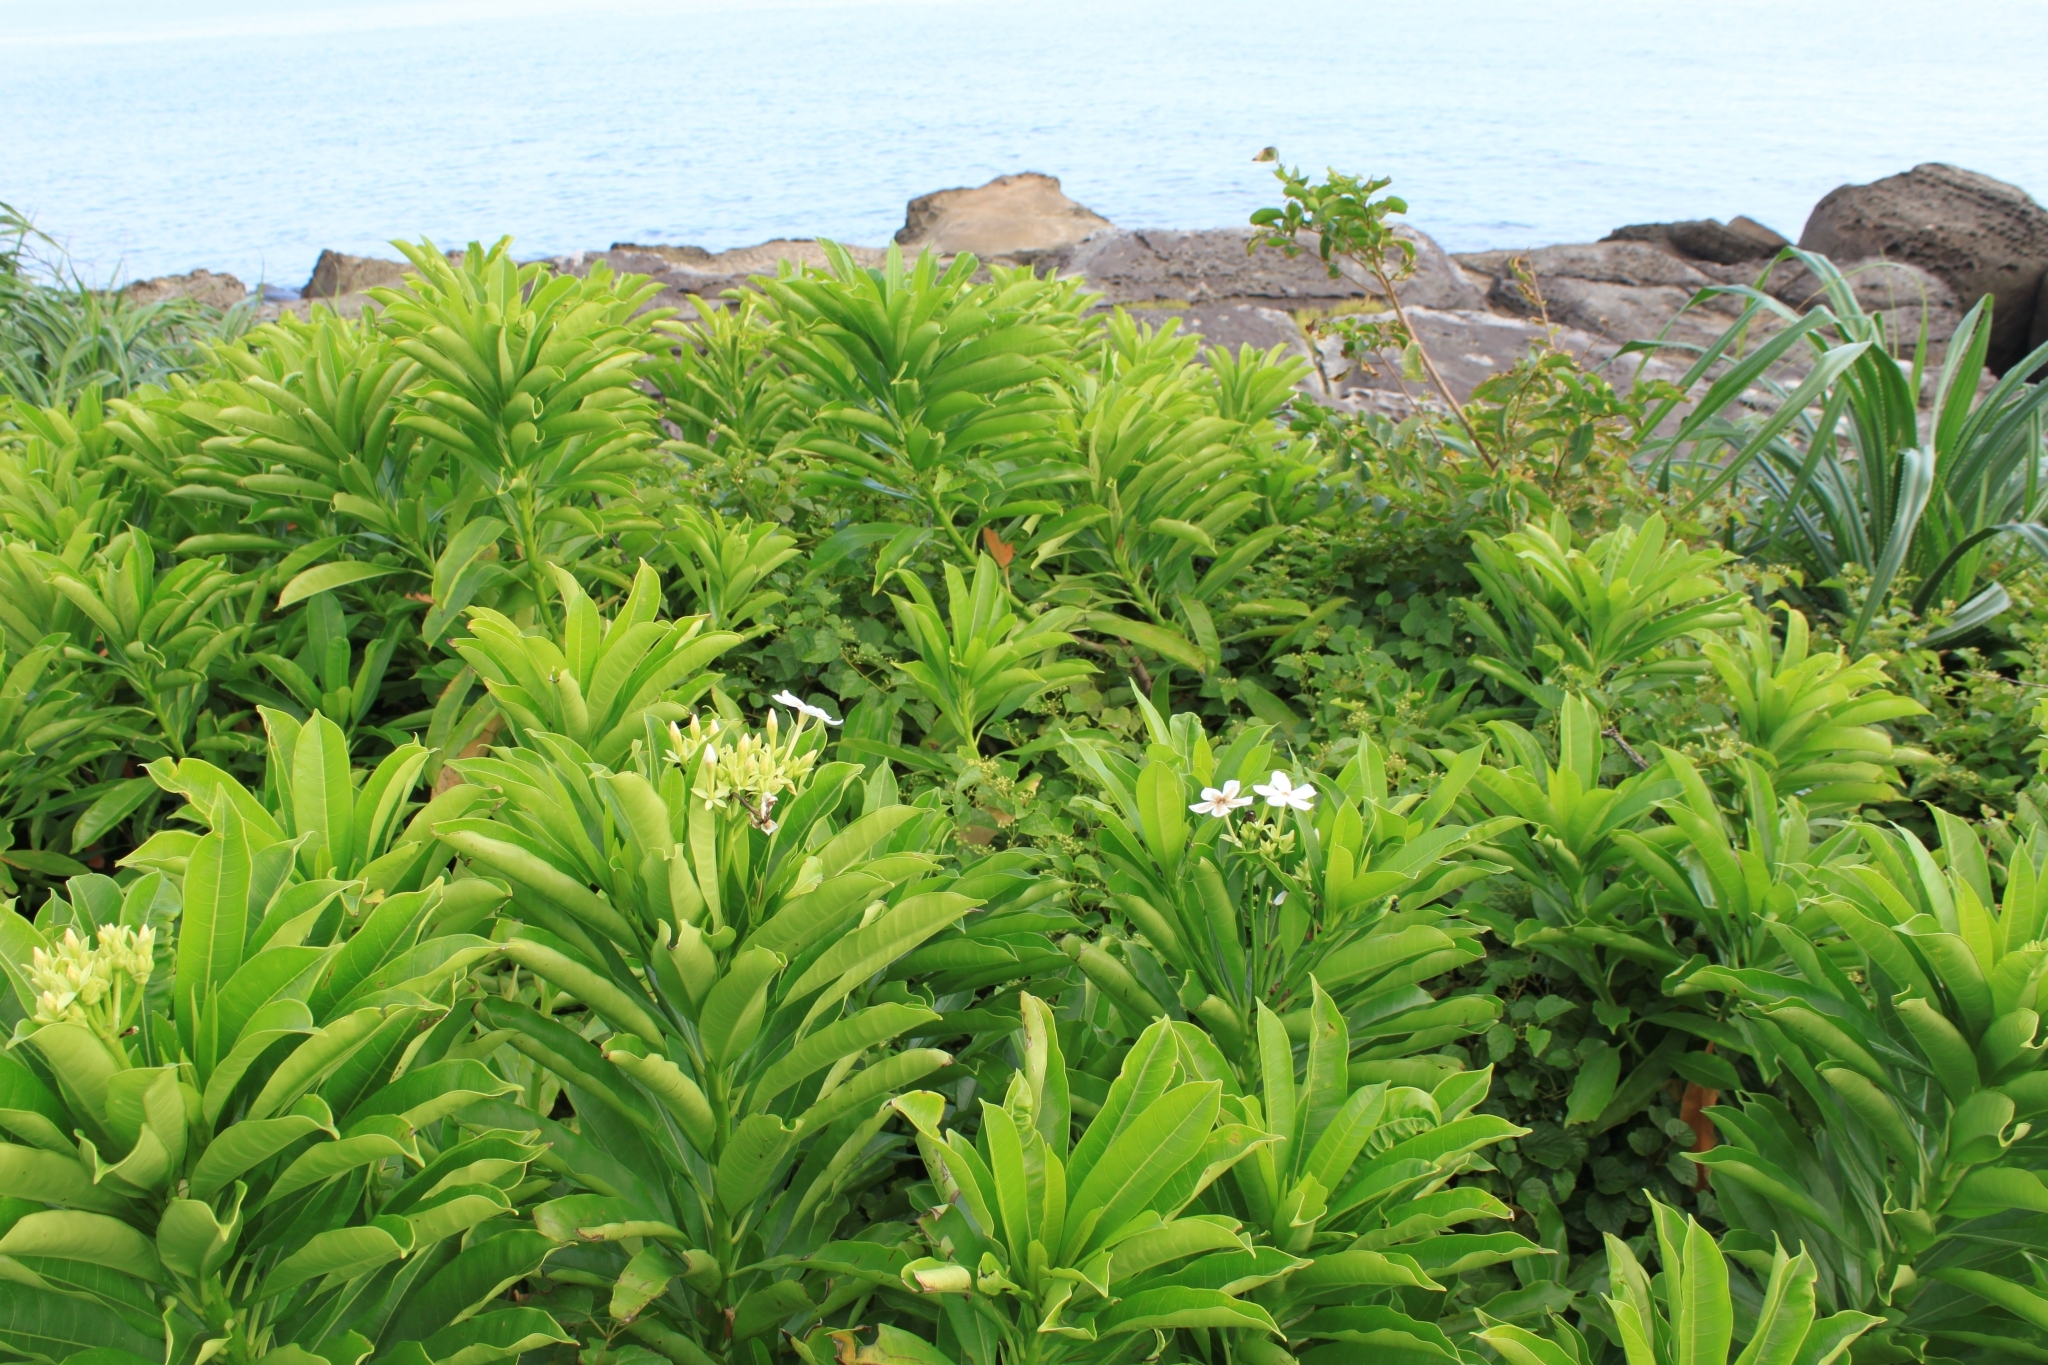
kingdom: Plantae
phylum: Tracheophyta
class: Magnoliopsida
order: Gentianales
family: Apocynaceae
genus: Cerbera
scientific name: Cerbera manghas
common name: Reva
